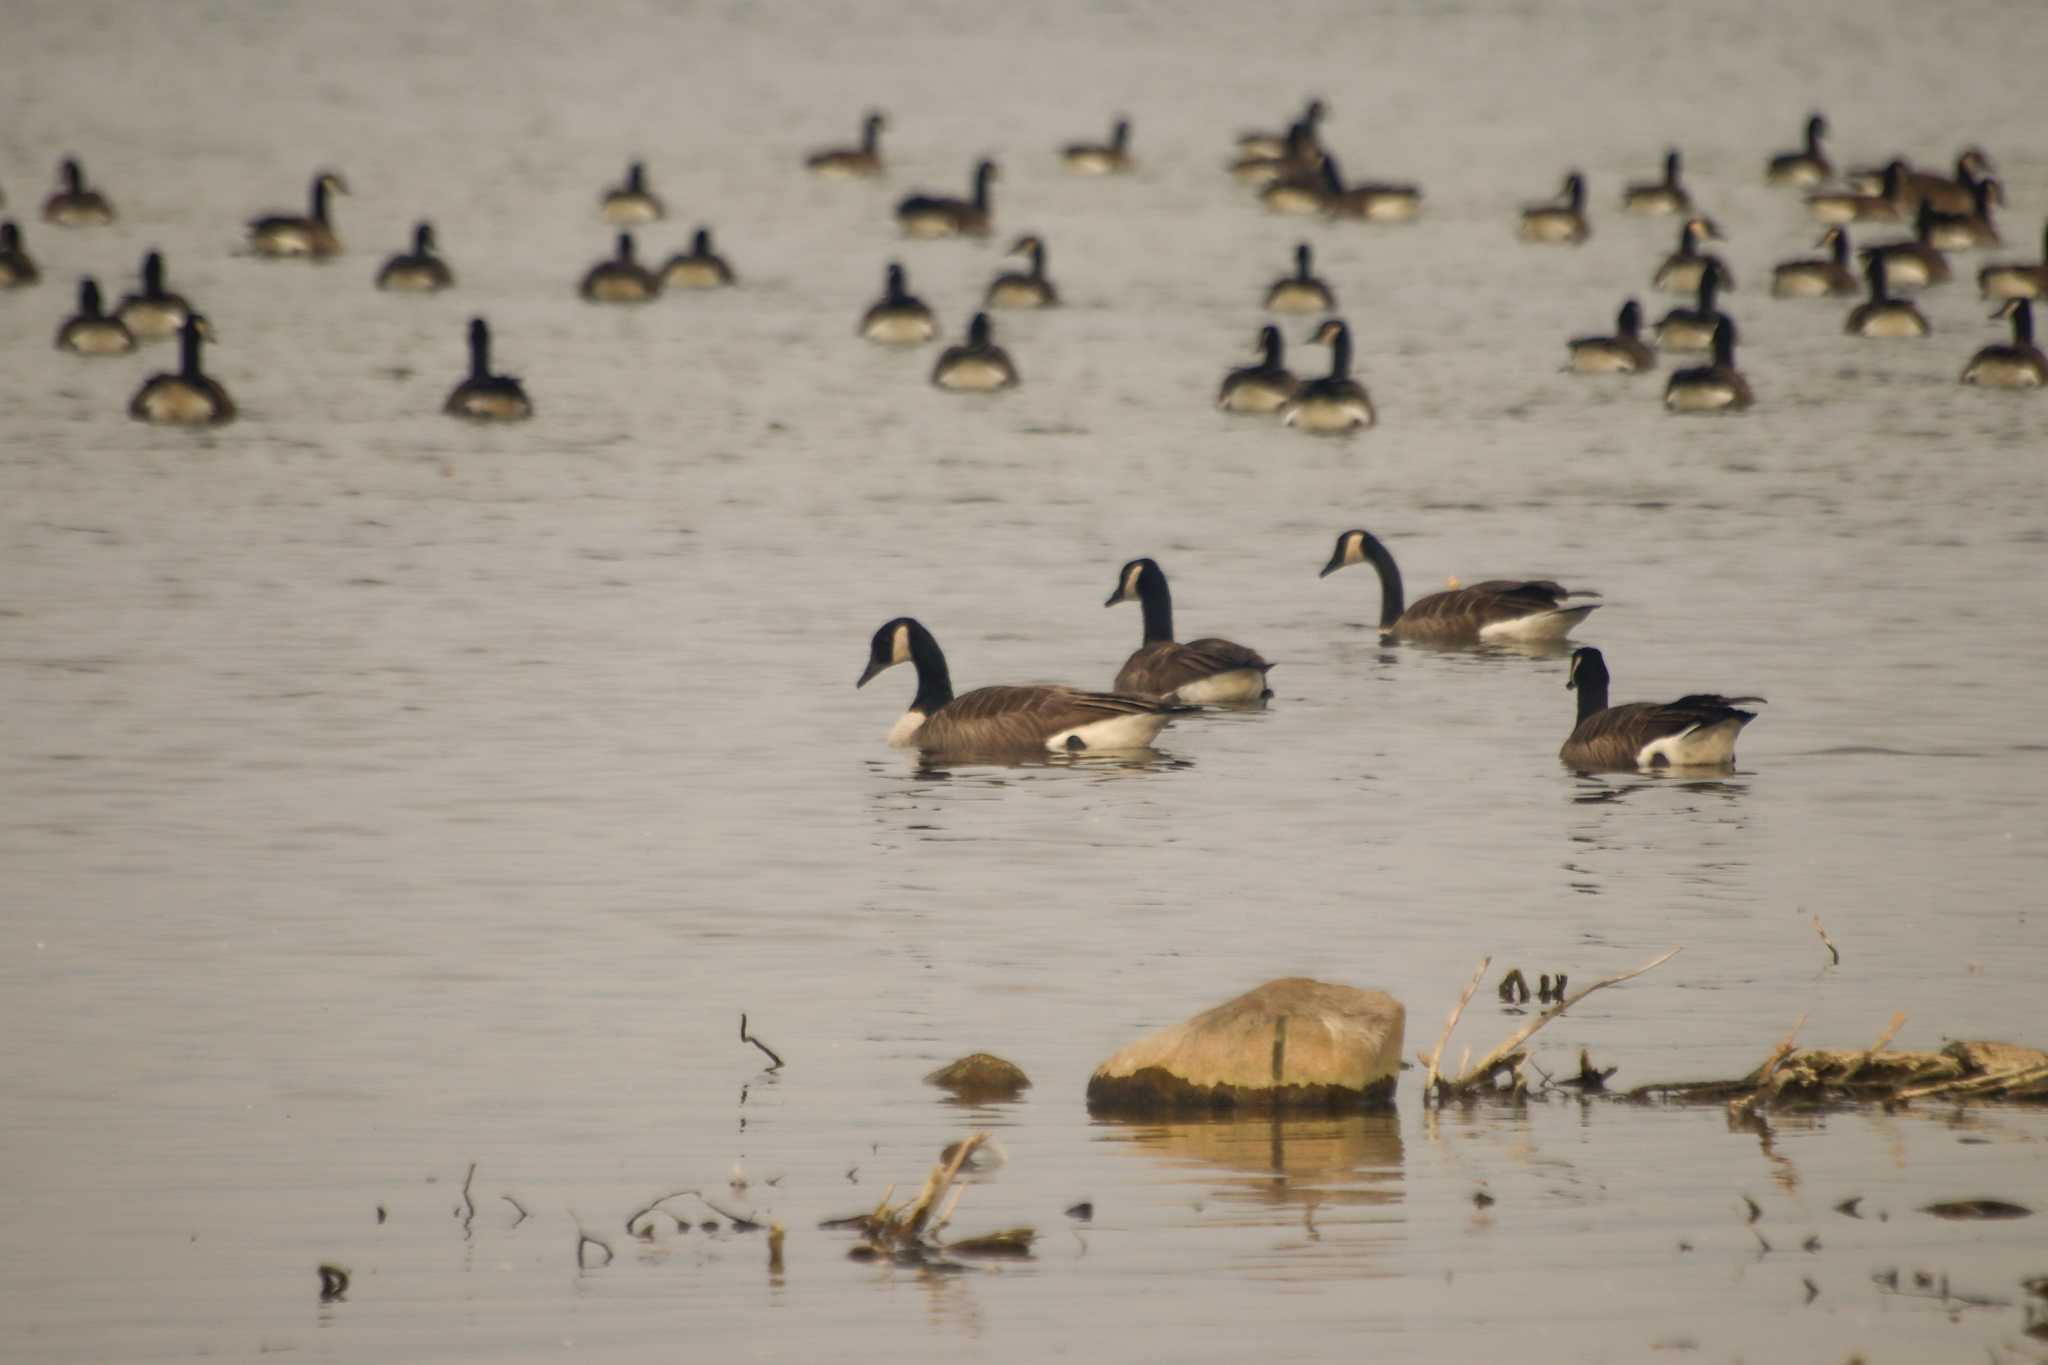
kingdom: Animalia
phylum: Chordata
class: Aves
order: Anseriformes
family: Anatidae
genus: Branta
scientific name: Branta canadensis
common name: Canada goose
